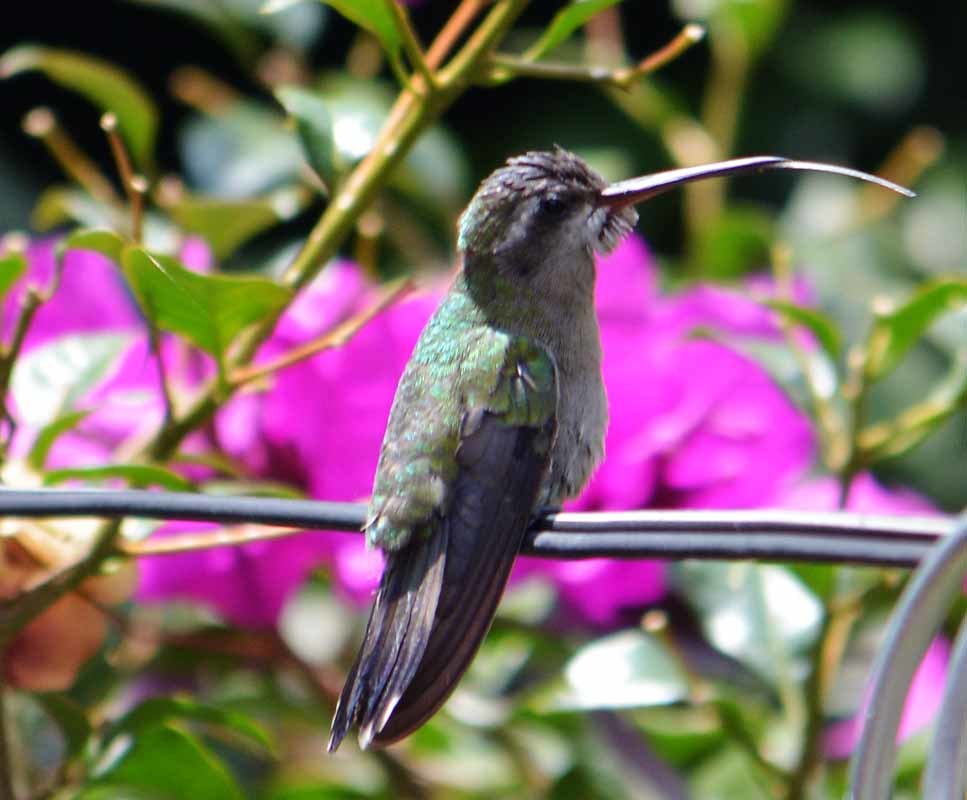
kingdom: Animalia
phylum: Chordata
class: Aves
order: Apodiformes
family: Trochilidae
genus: Cynanthus
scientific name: Cynanthus latirostris
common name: Broad-billed hummingbird
